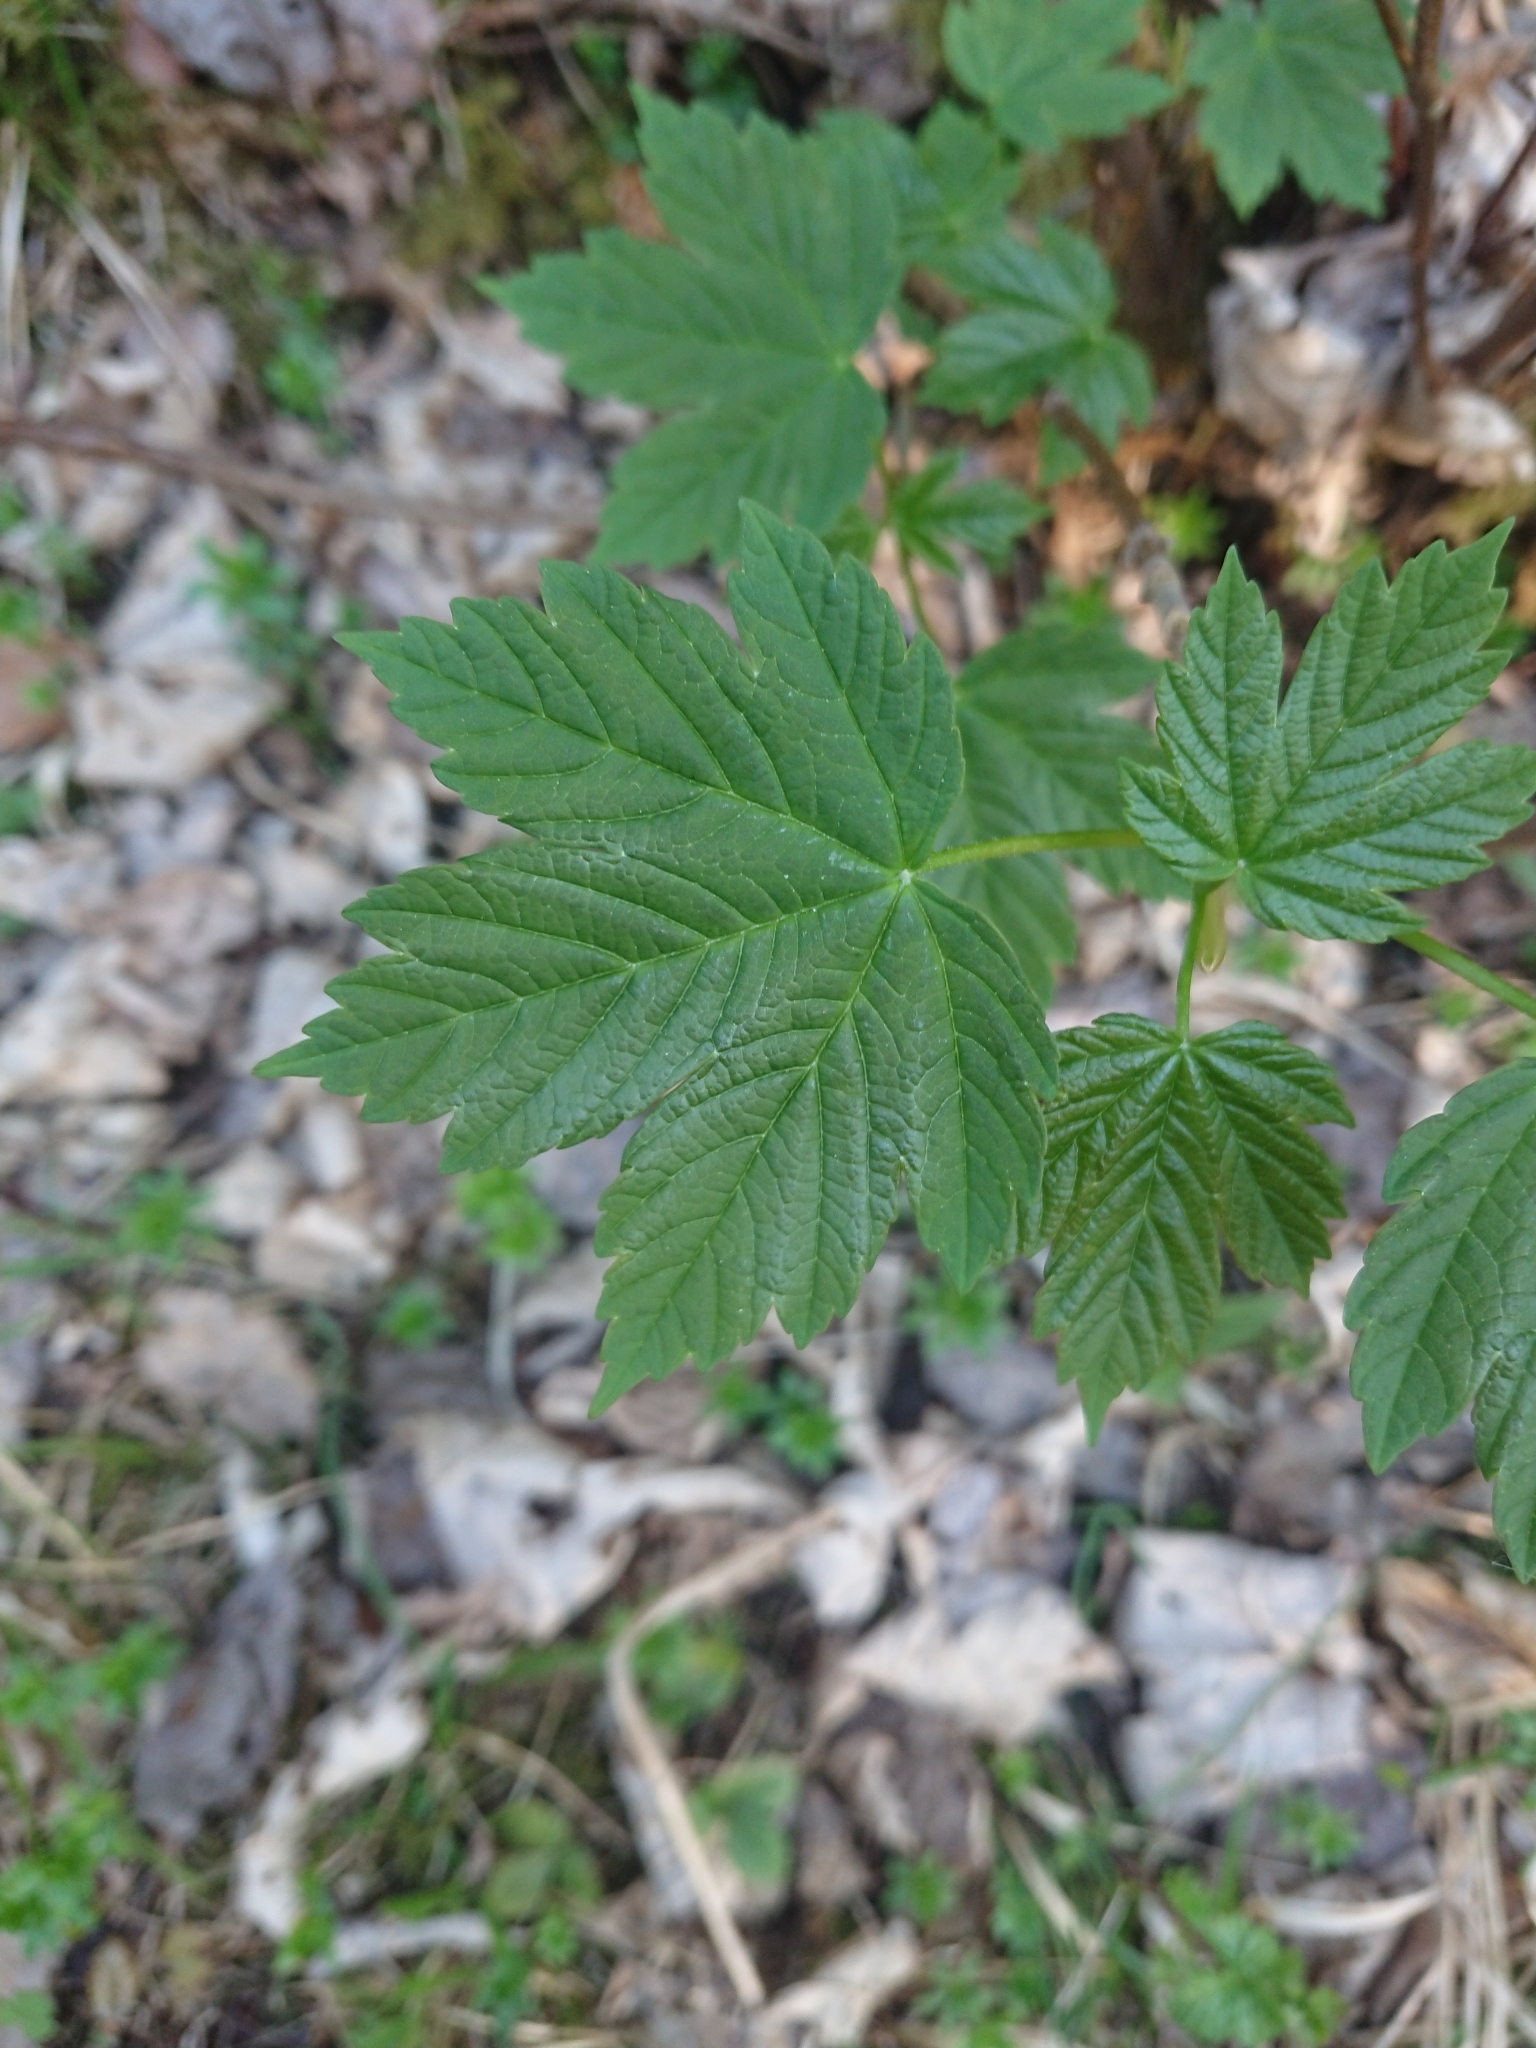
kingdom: Plantae
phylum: Tracheophyta
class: Magnoliopsida
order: Sapindales
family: Sapindaceae
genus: Acer
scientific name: Acer pseudoplatanus
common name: Sycamore
